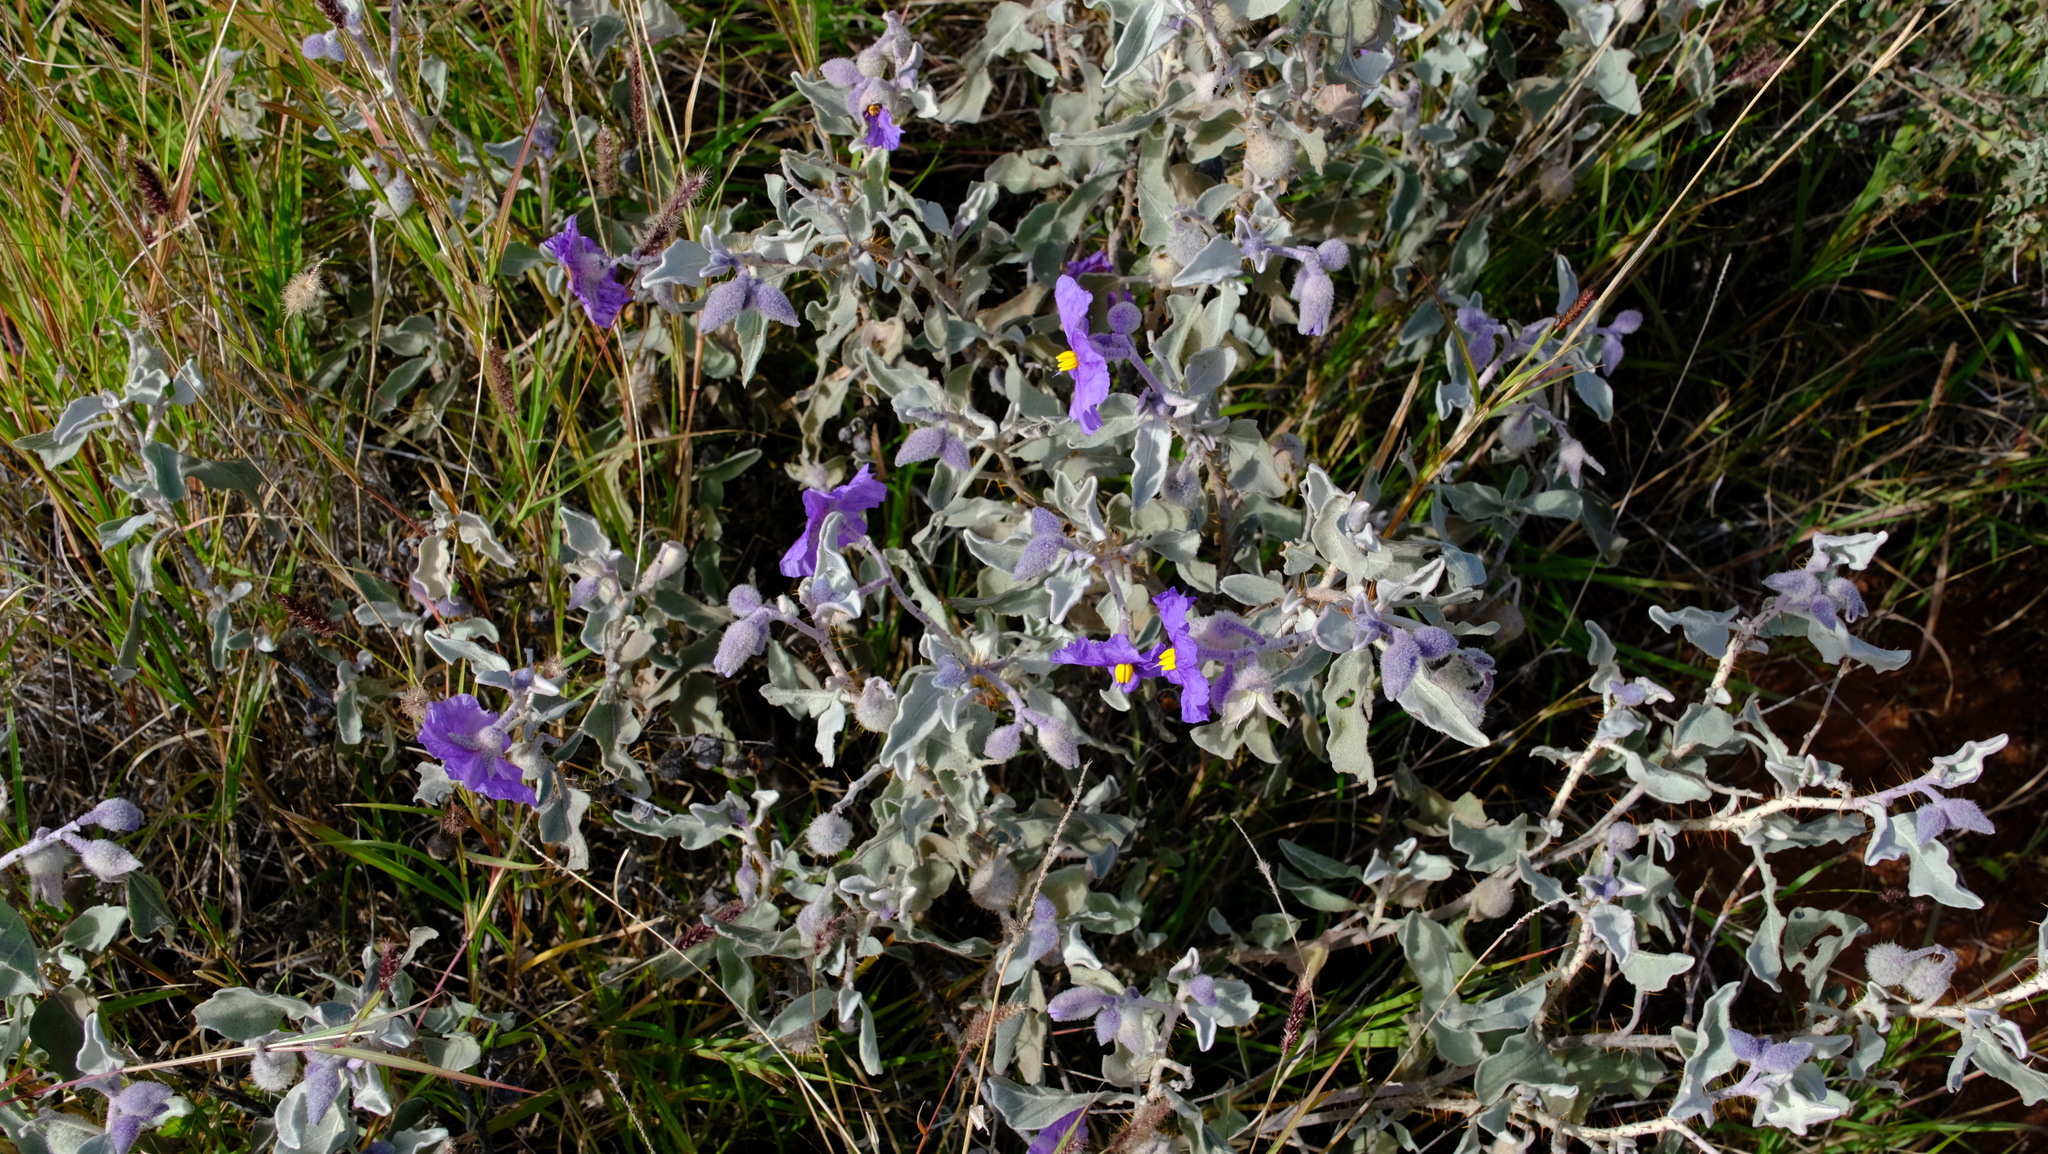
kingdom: Plantae
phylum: Tracheophyta
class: Magnoliopsida
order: Solanales
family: Solanaceae
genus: Solanum
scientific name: Solanum lasiophyllum
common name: Flannelbush
